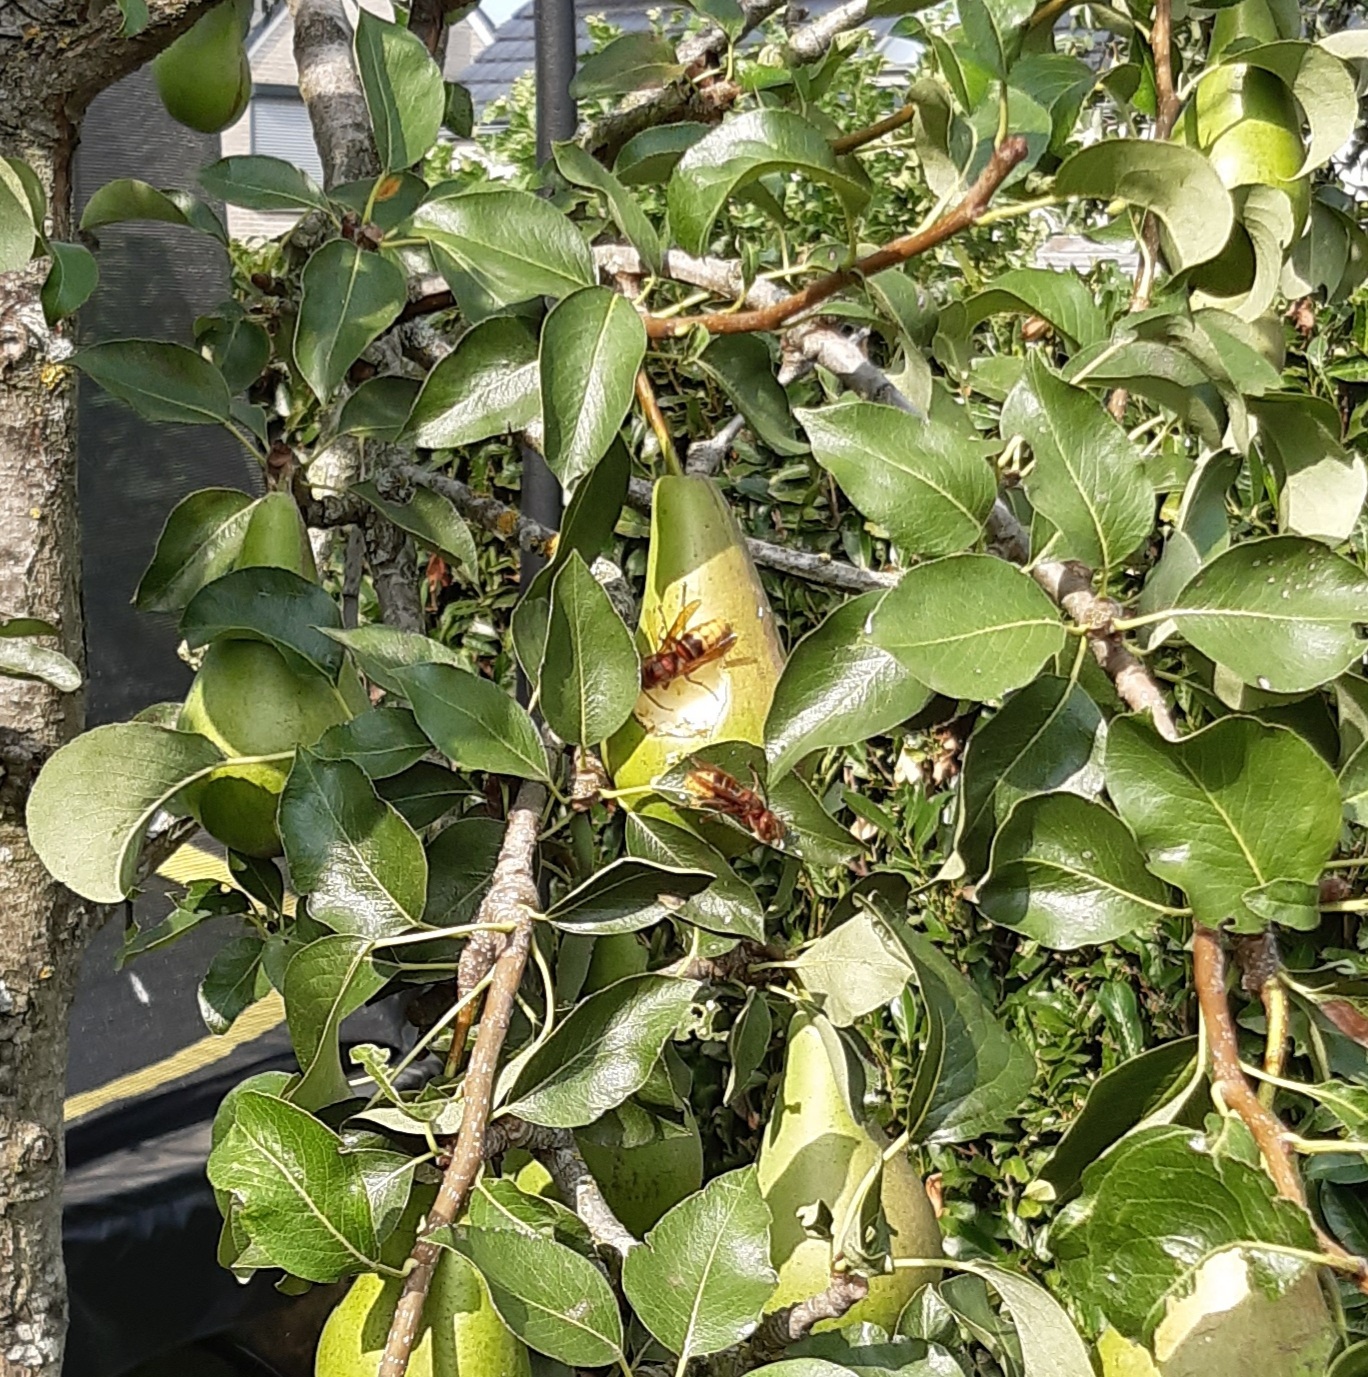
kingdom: Animalia
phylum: Arthropoda
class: Insecta
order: Hymenoptera
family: Vespidae
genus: Vespa
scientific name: Vespa crabro
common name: Hornet
